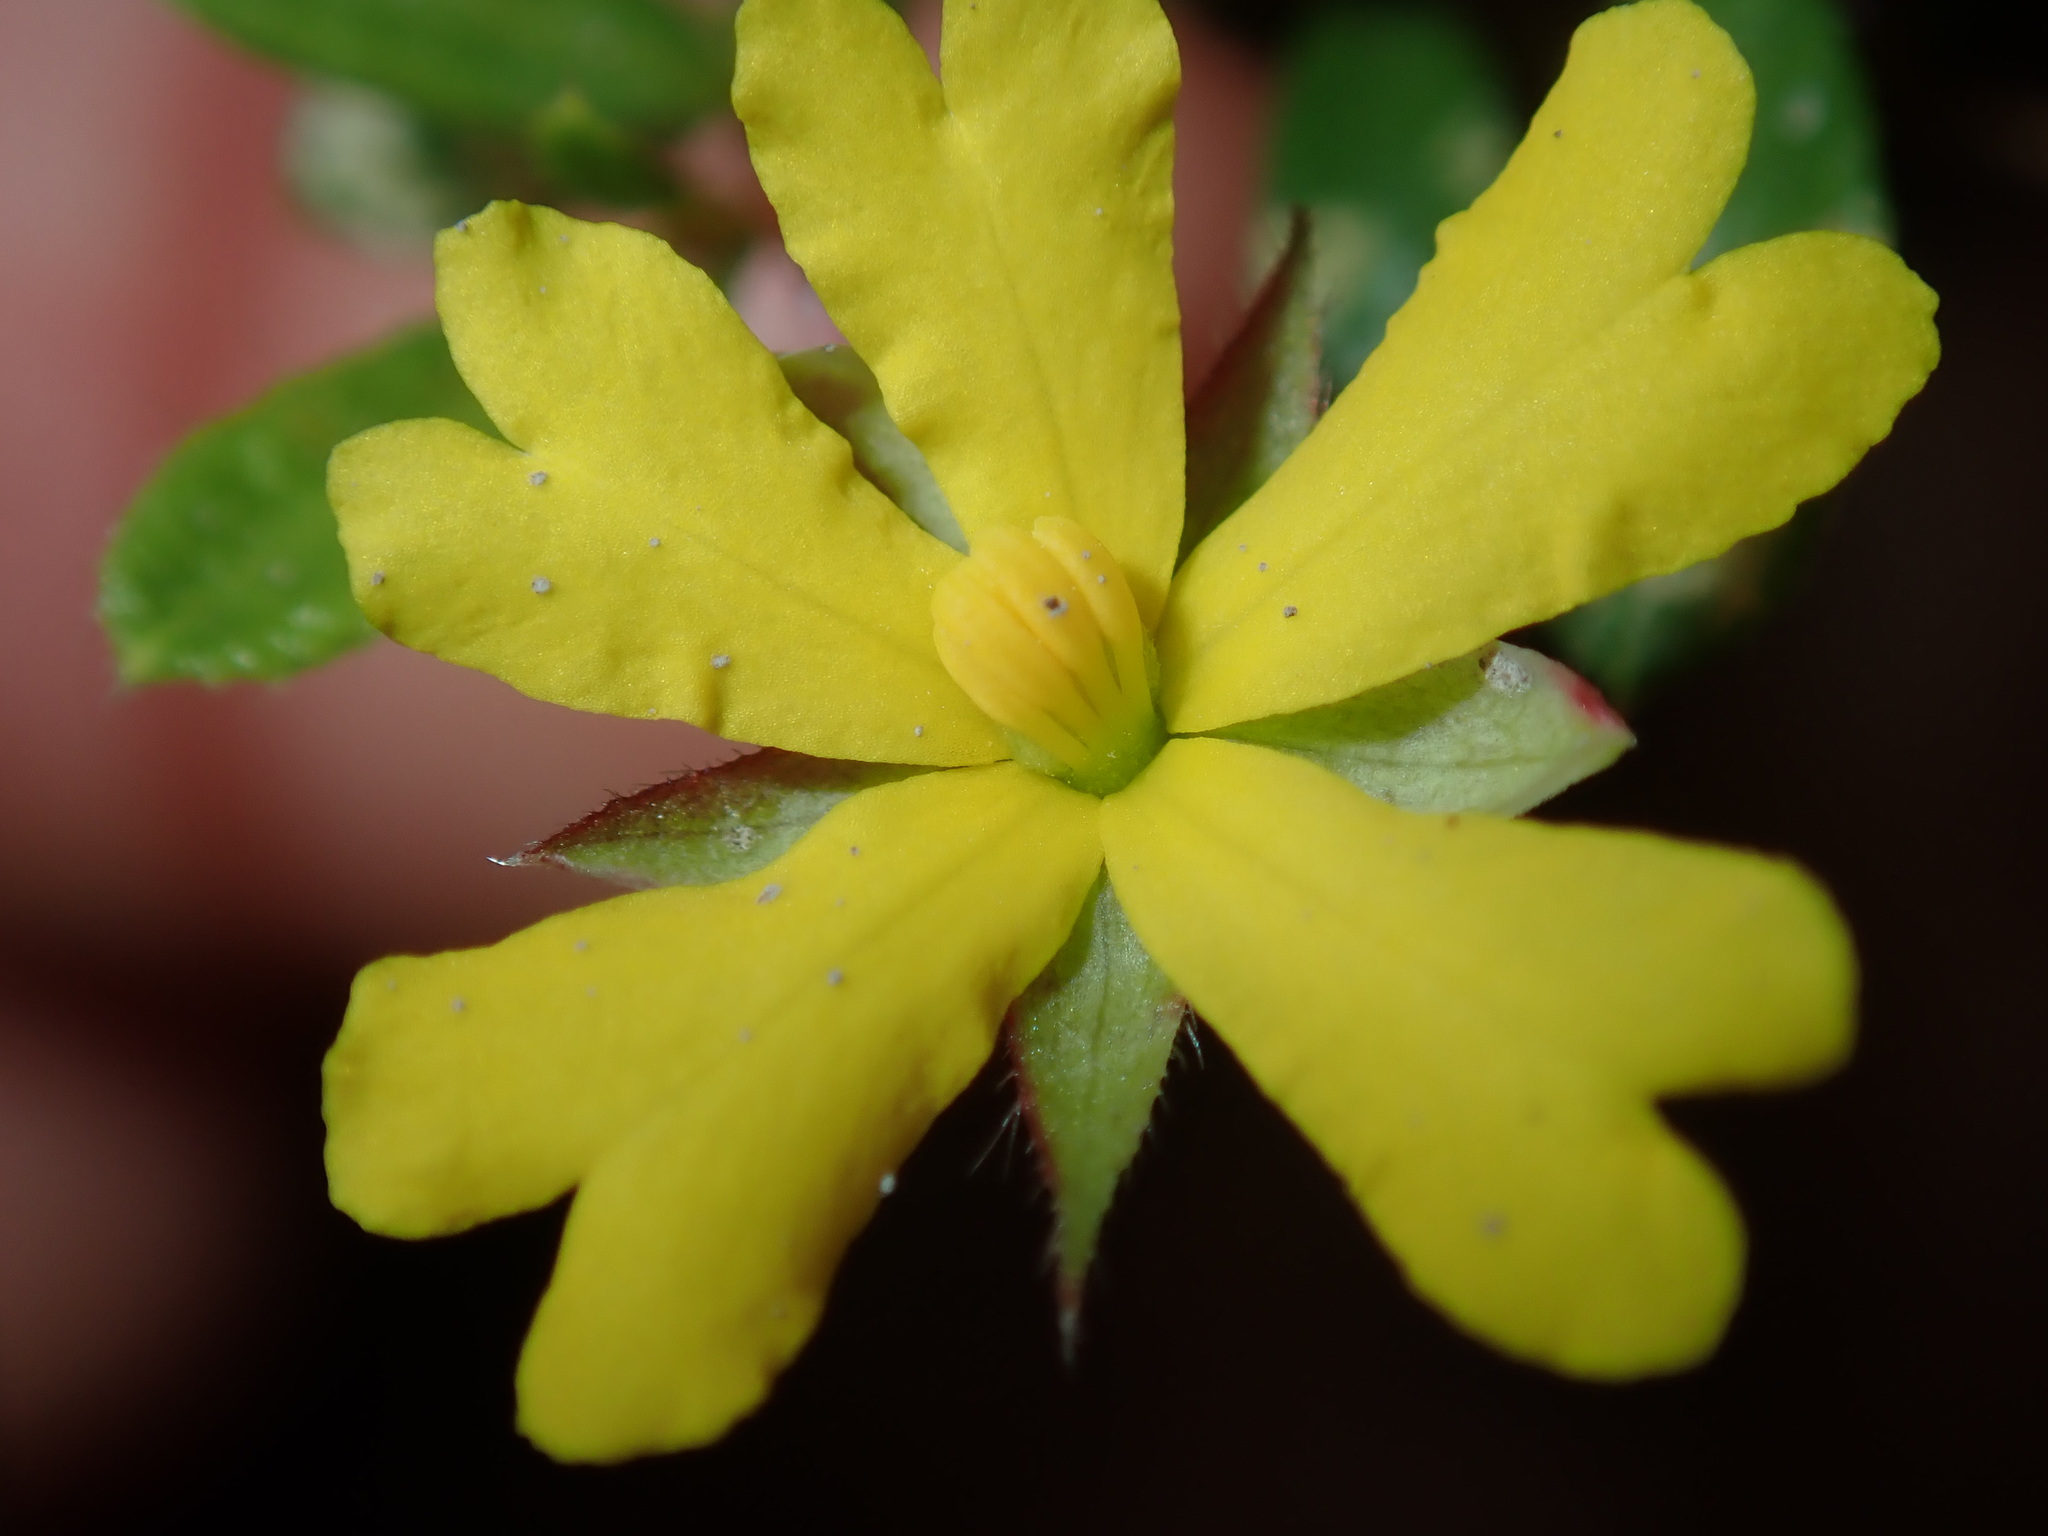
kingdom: Plantae
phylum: Tracheophyta
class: Magnoliopsida
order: Dilleniales
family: Dilleniaceae
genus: Hibbertia
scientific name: Hibbertia empetrifolia
